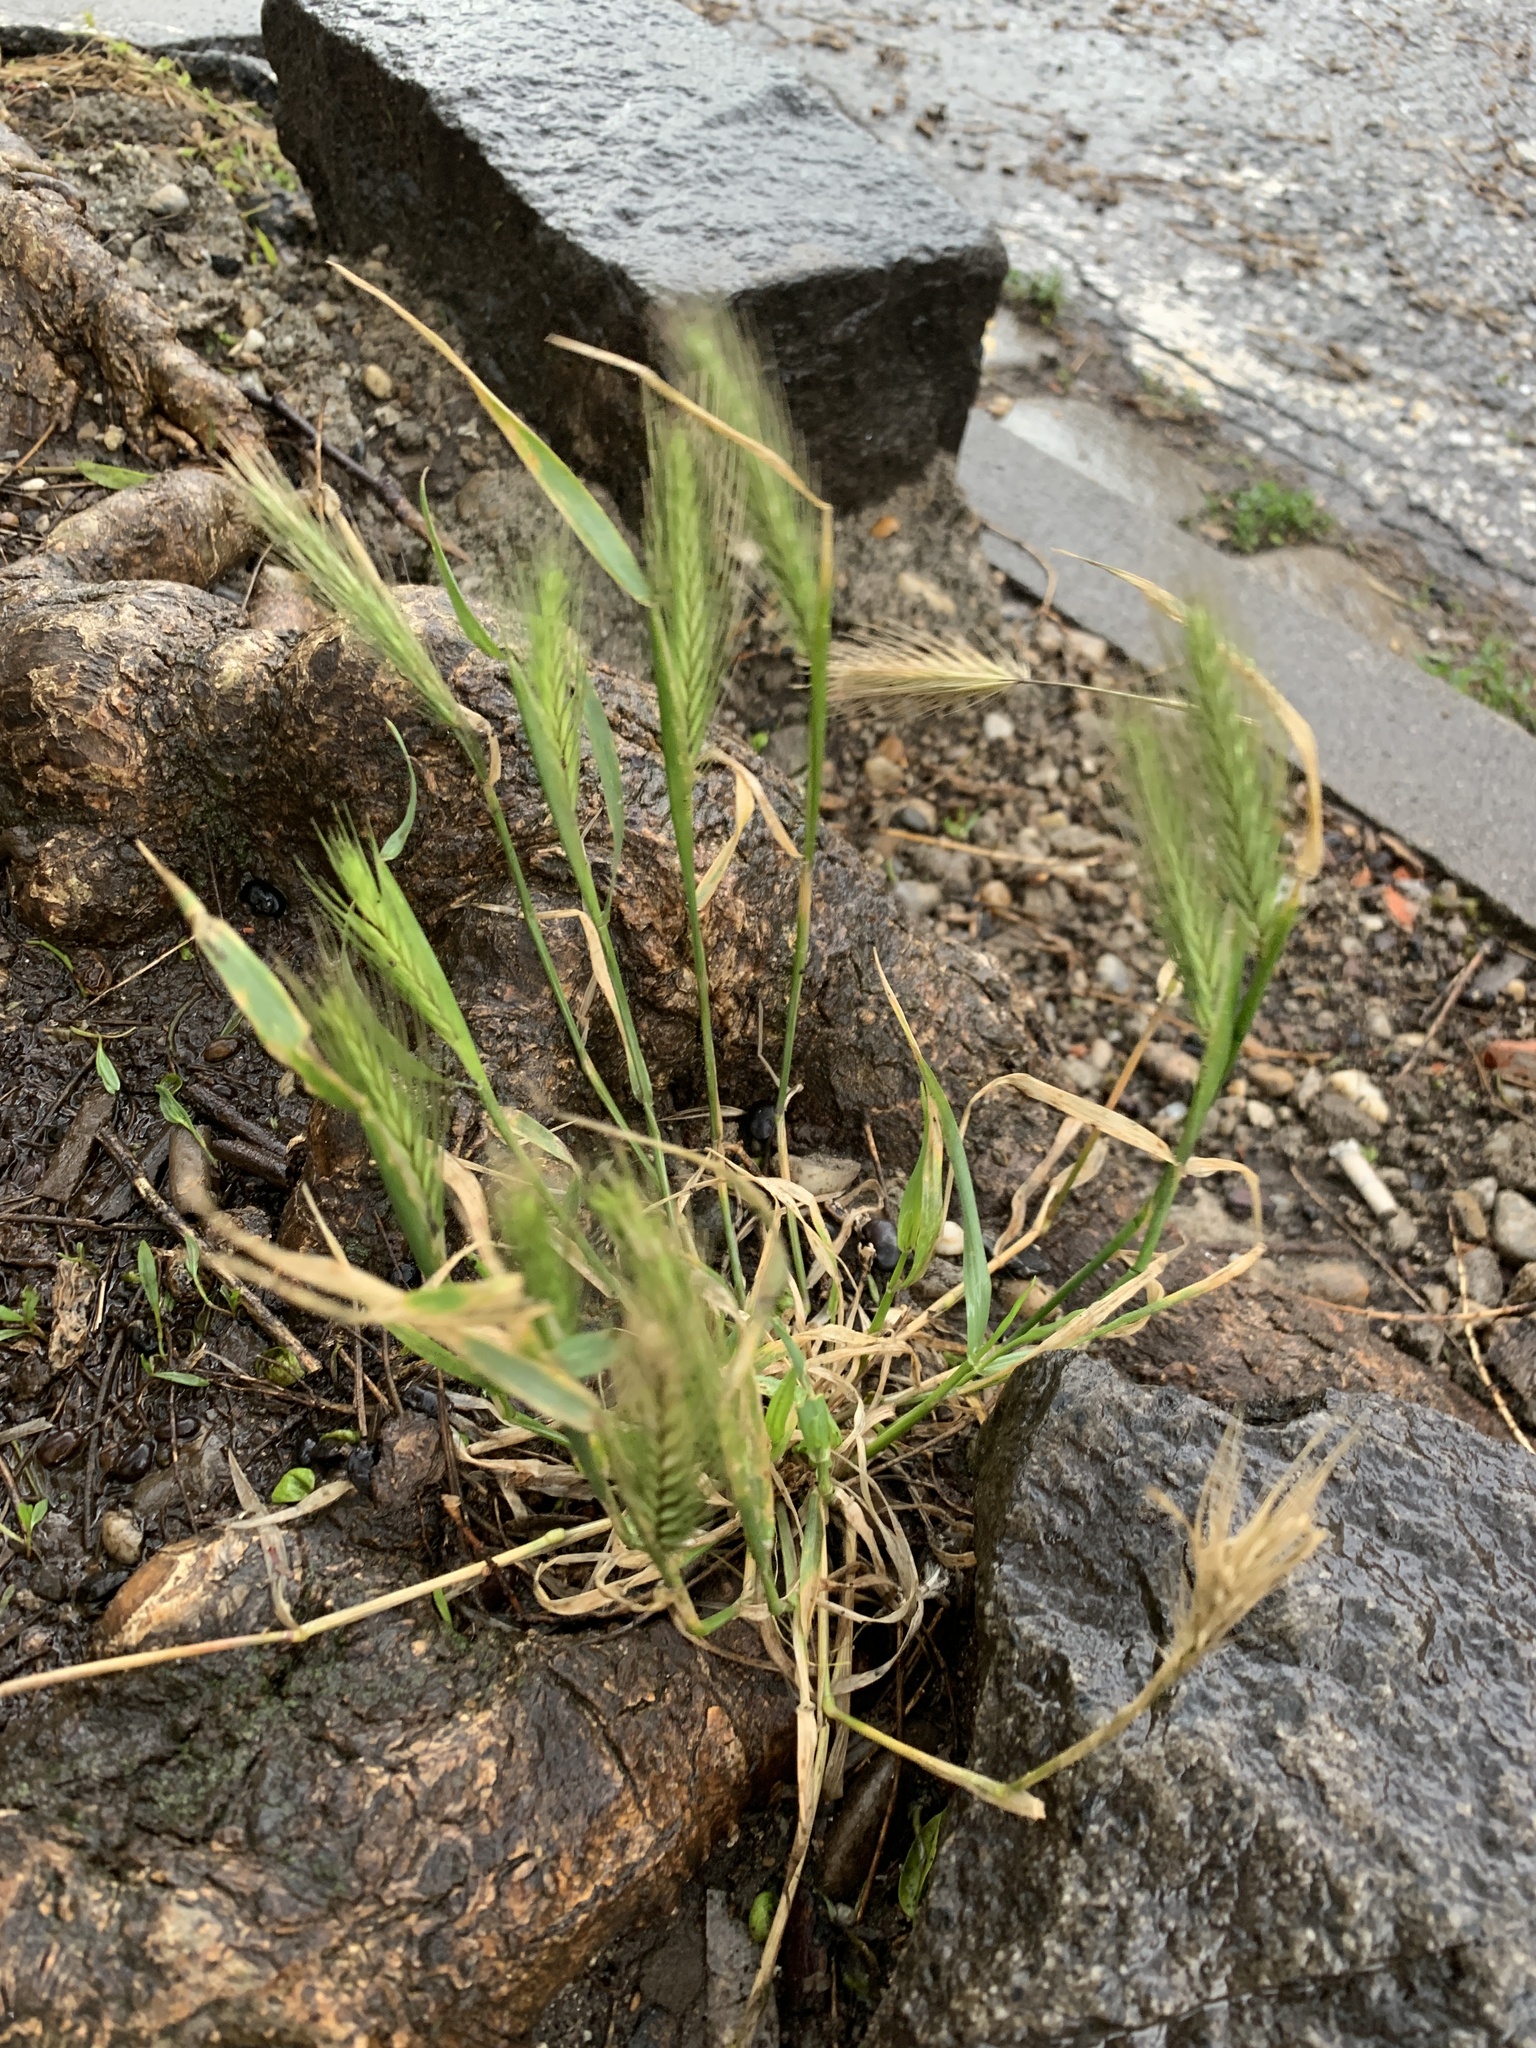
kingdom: Plantae
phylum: Tracheophyta
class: Liliopsida
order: Poales
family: Poaceae
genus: Hordeum
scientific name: Hordeum murinum
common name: Wall barley
